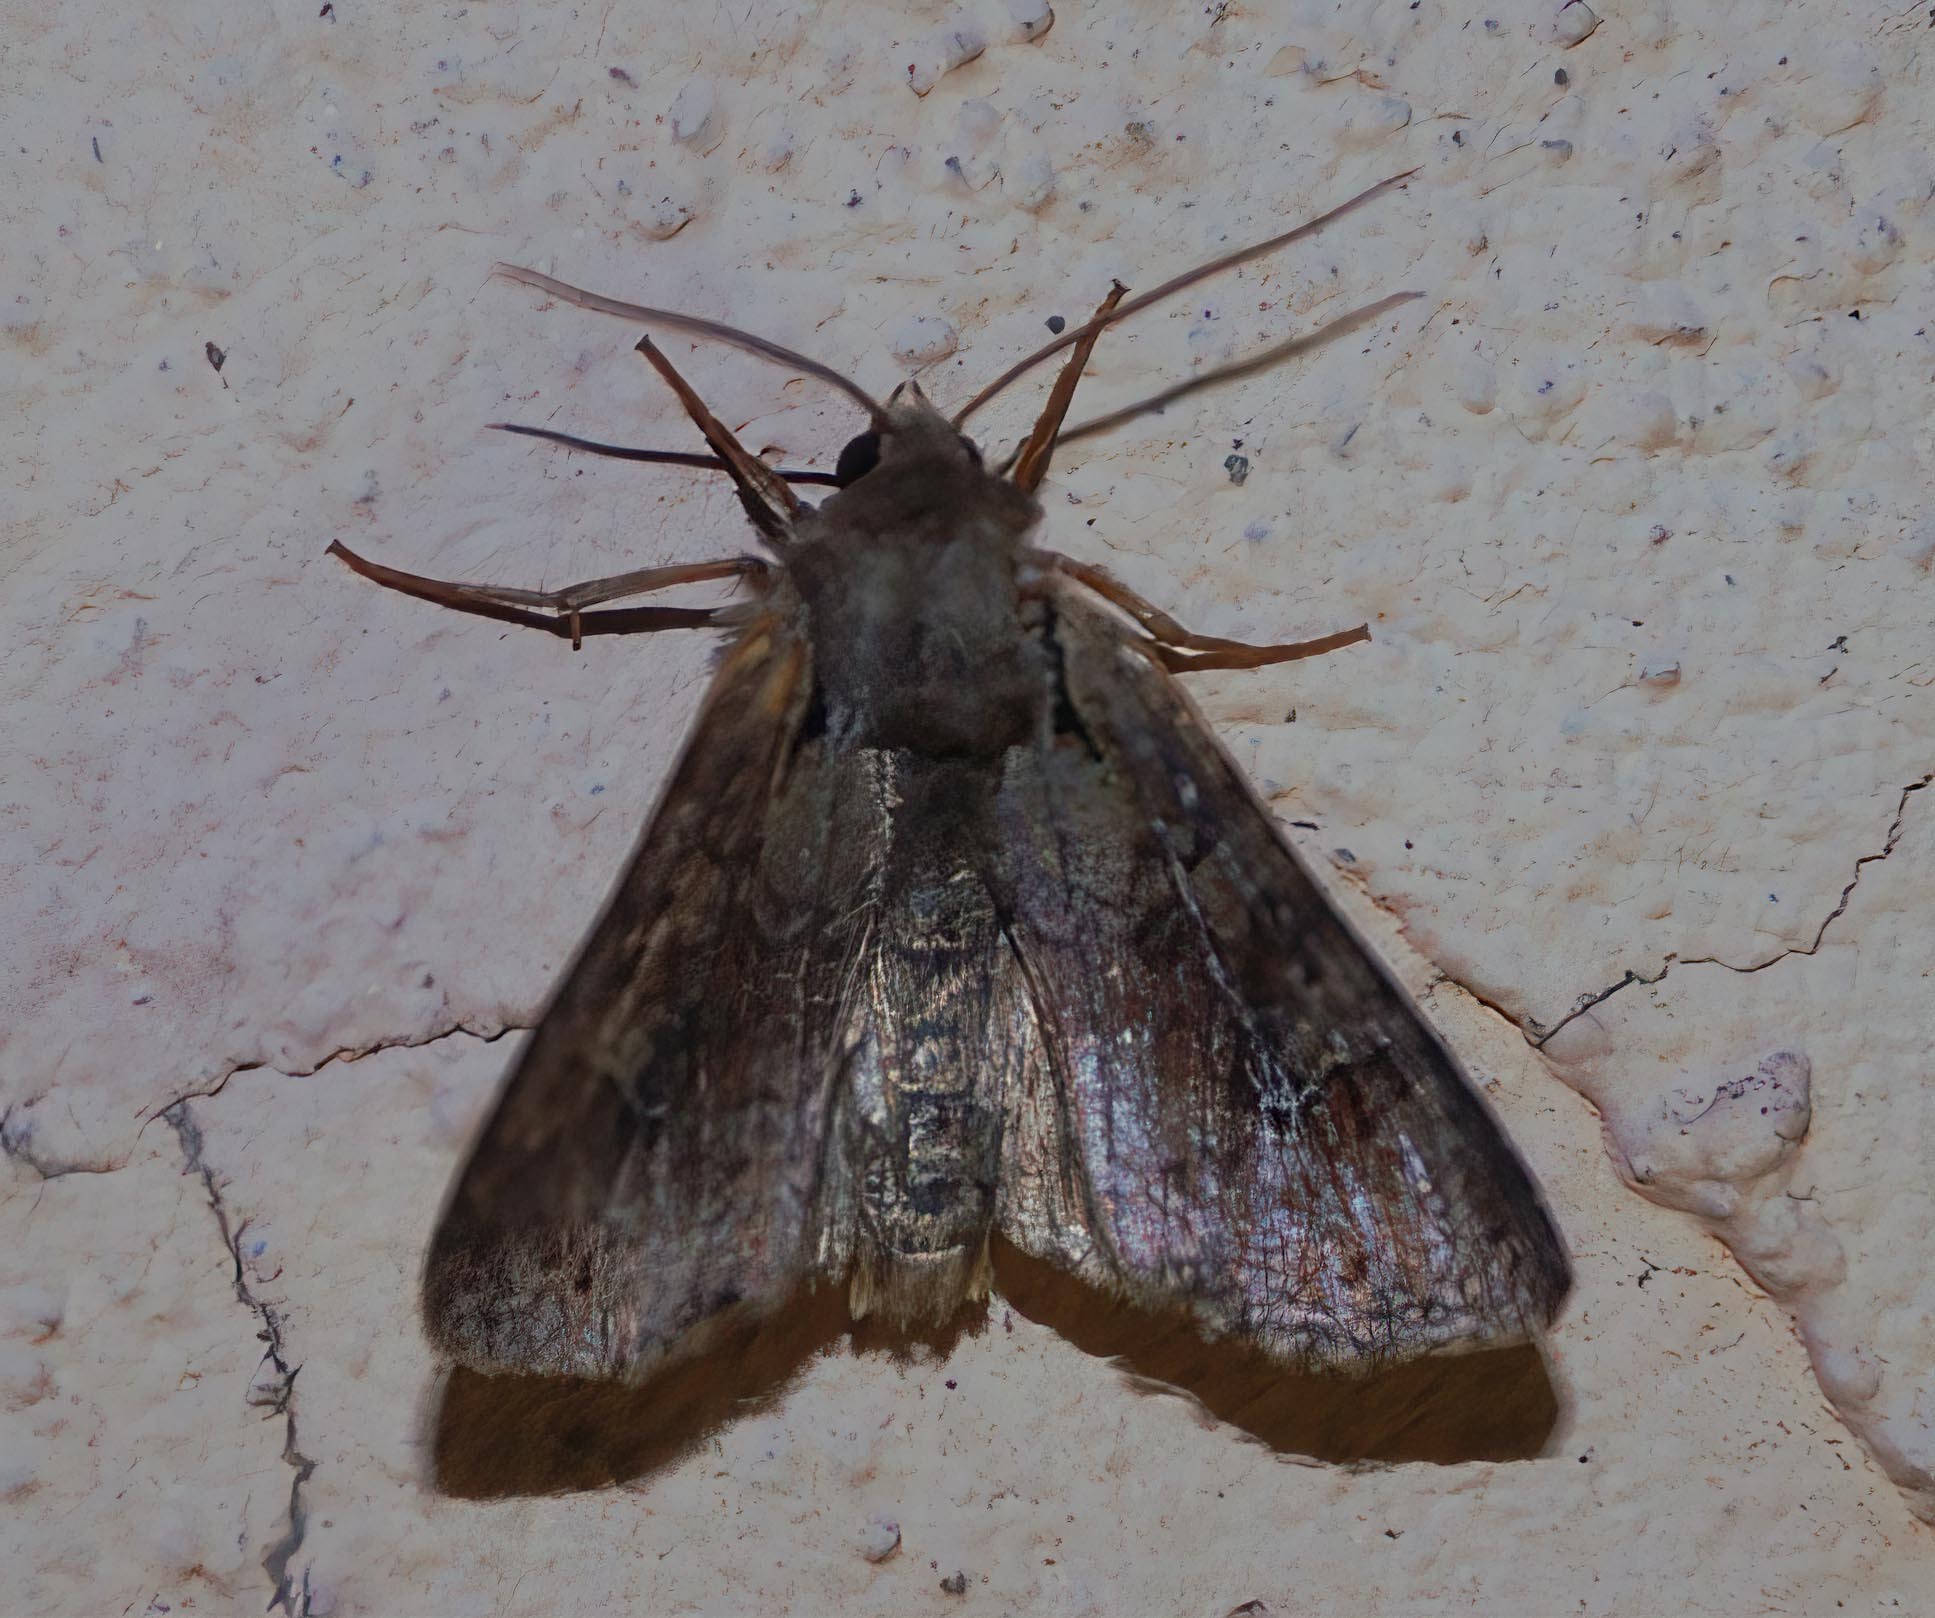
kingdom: Animalia
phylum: Arthropoda
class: Insecta
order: Lepidoptera
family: Noctuidae
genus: Apamea
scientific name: Apamea sordens
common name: Rustic shoulder-knot
